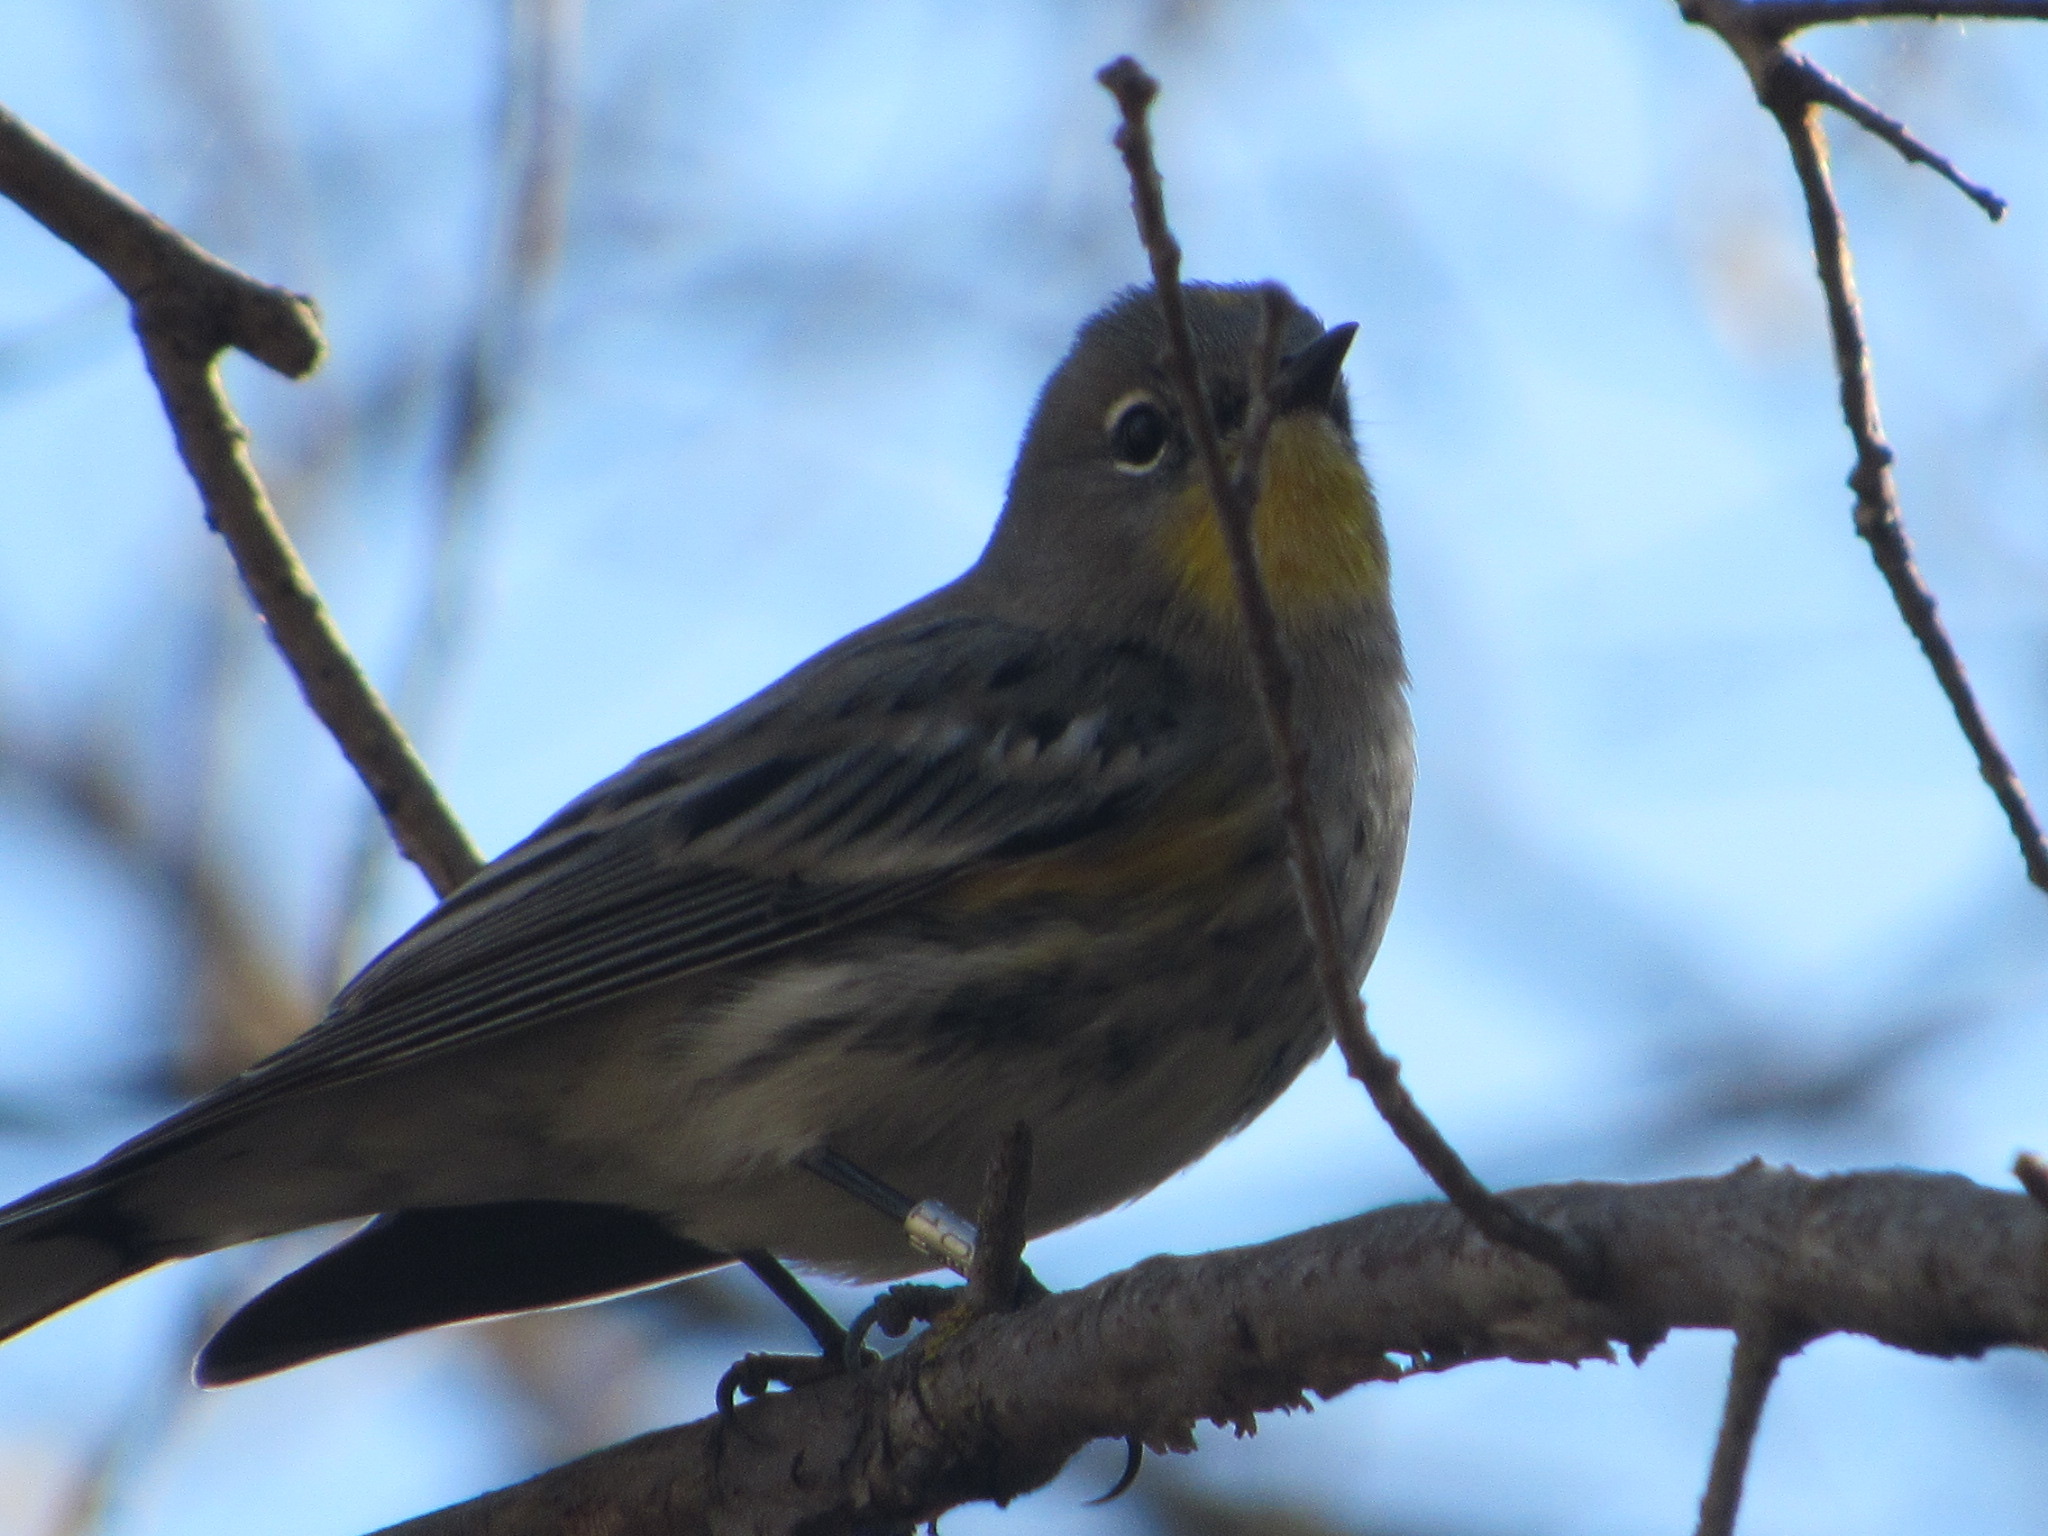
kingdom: Animalia
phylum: Chordata
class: Aves
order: Passeriformes
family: Parulidae
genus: Setophaga
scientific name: Setophaga coronata
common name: Myrtle warbler
